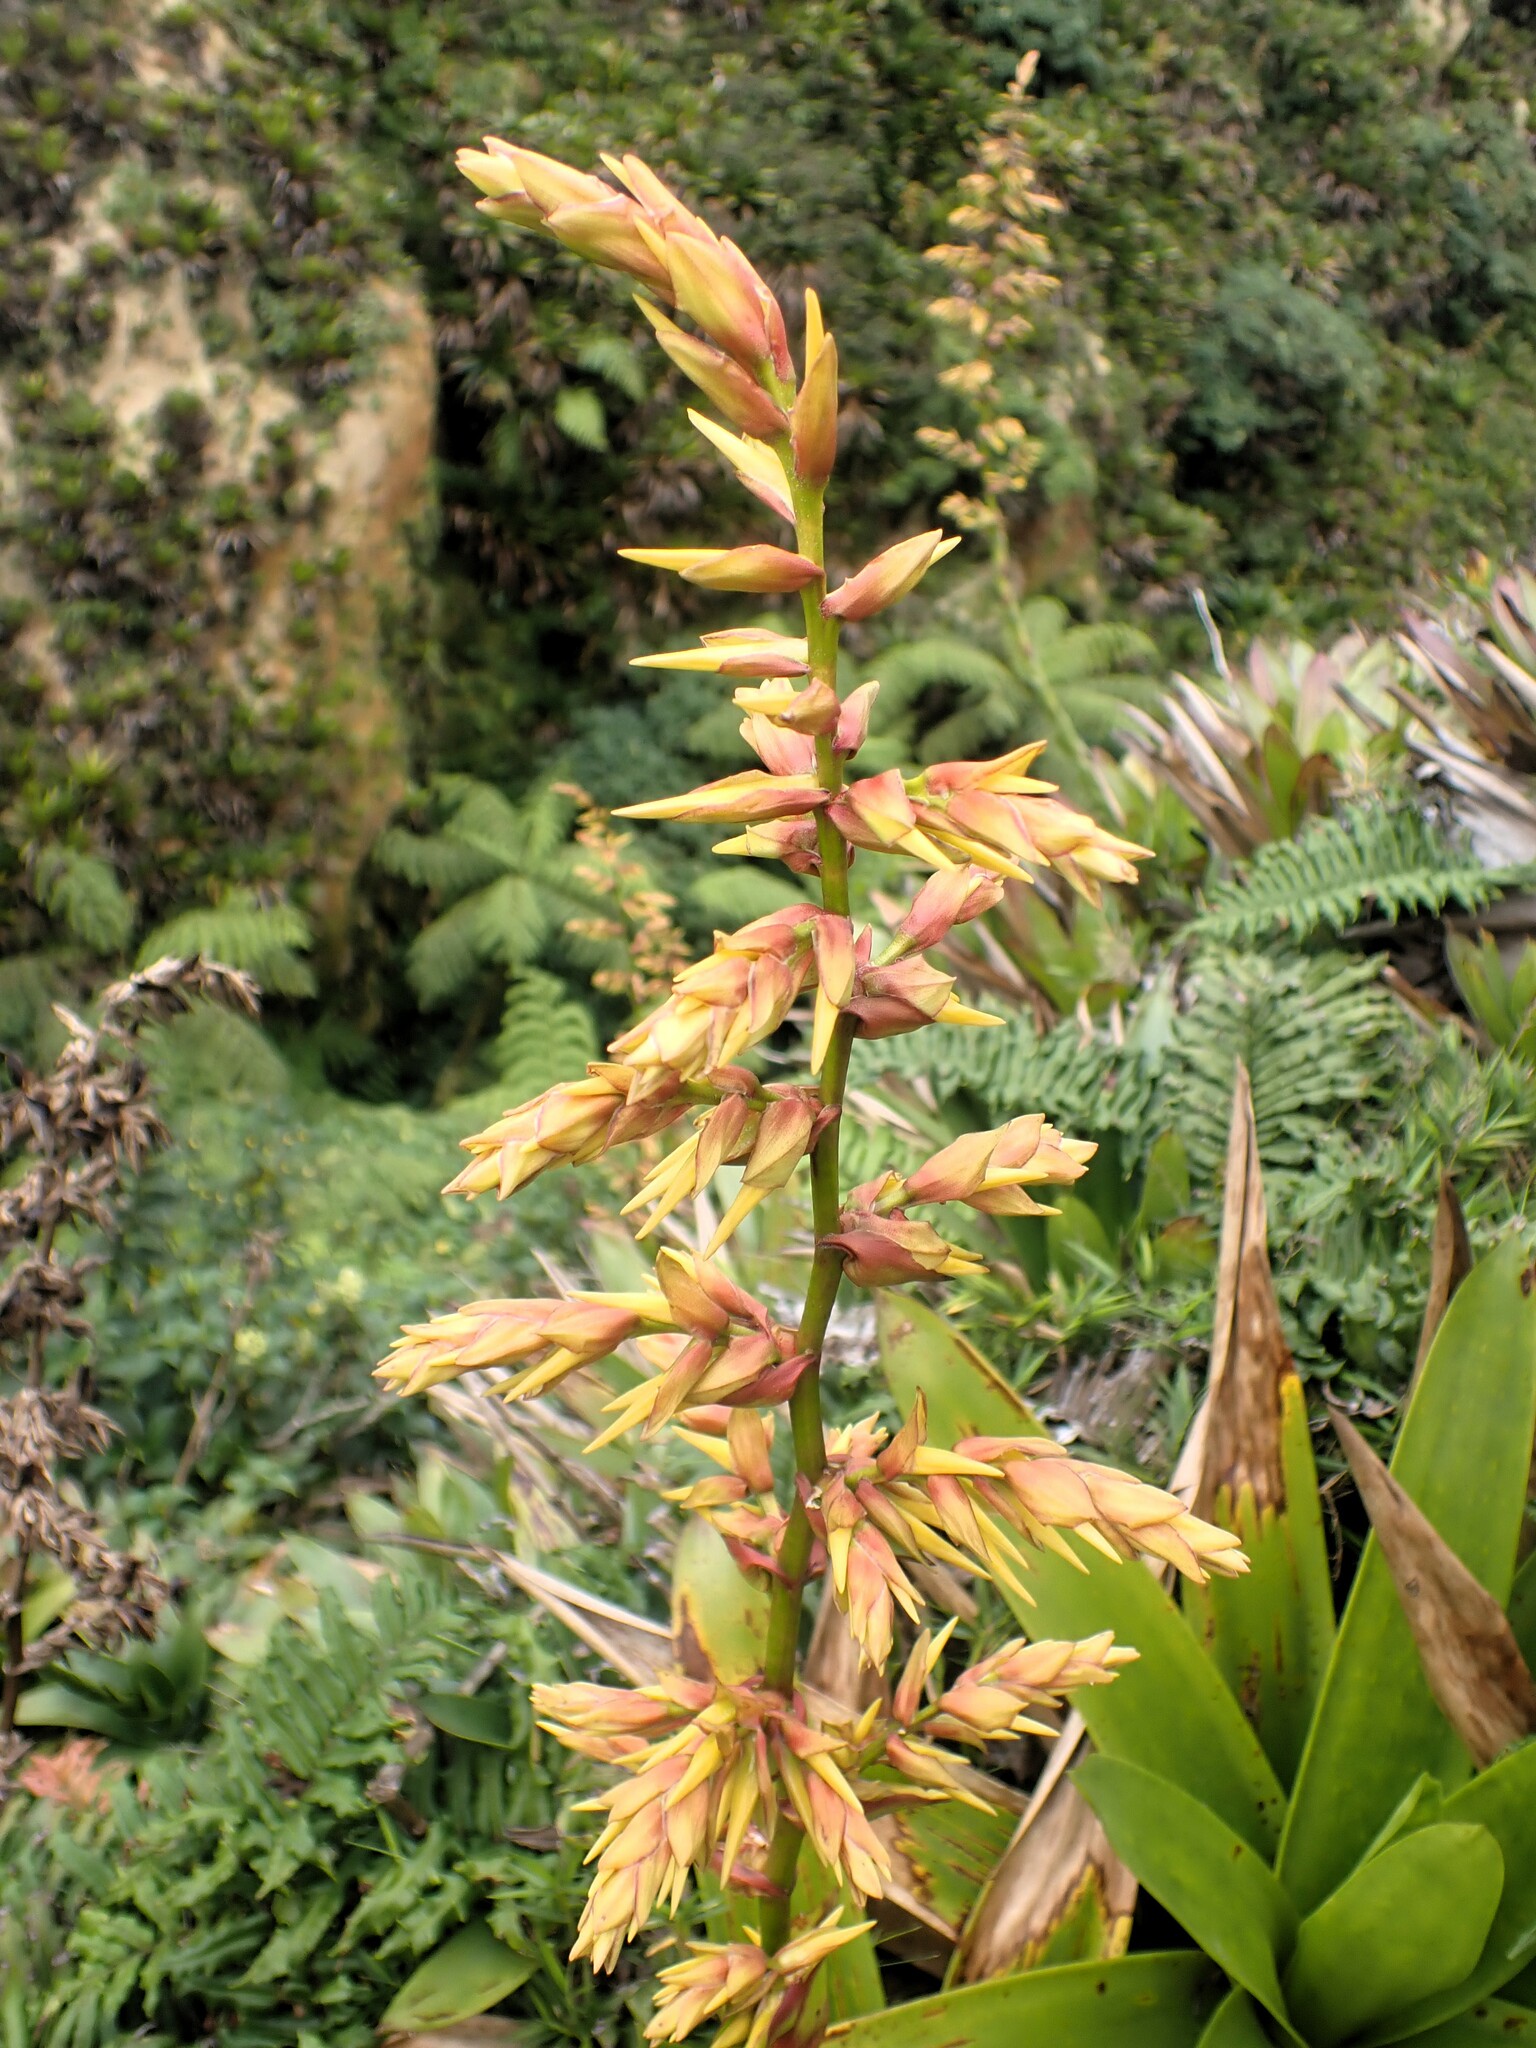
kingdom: Plantae
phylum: Tracheophyta
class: Liliopsida
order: Poales
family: Bromeliaceae
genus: Guzmania
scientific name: Guzmania plumieri
